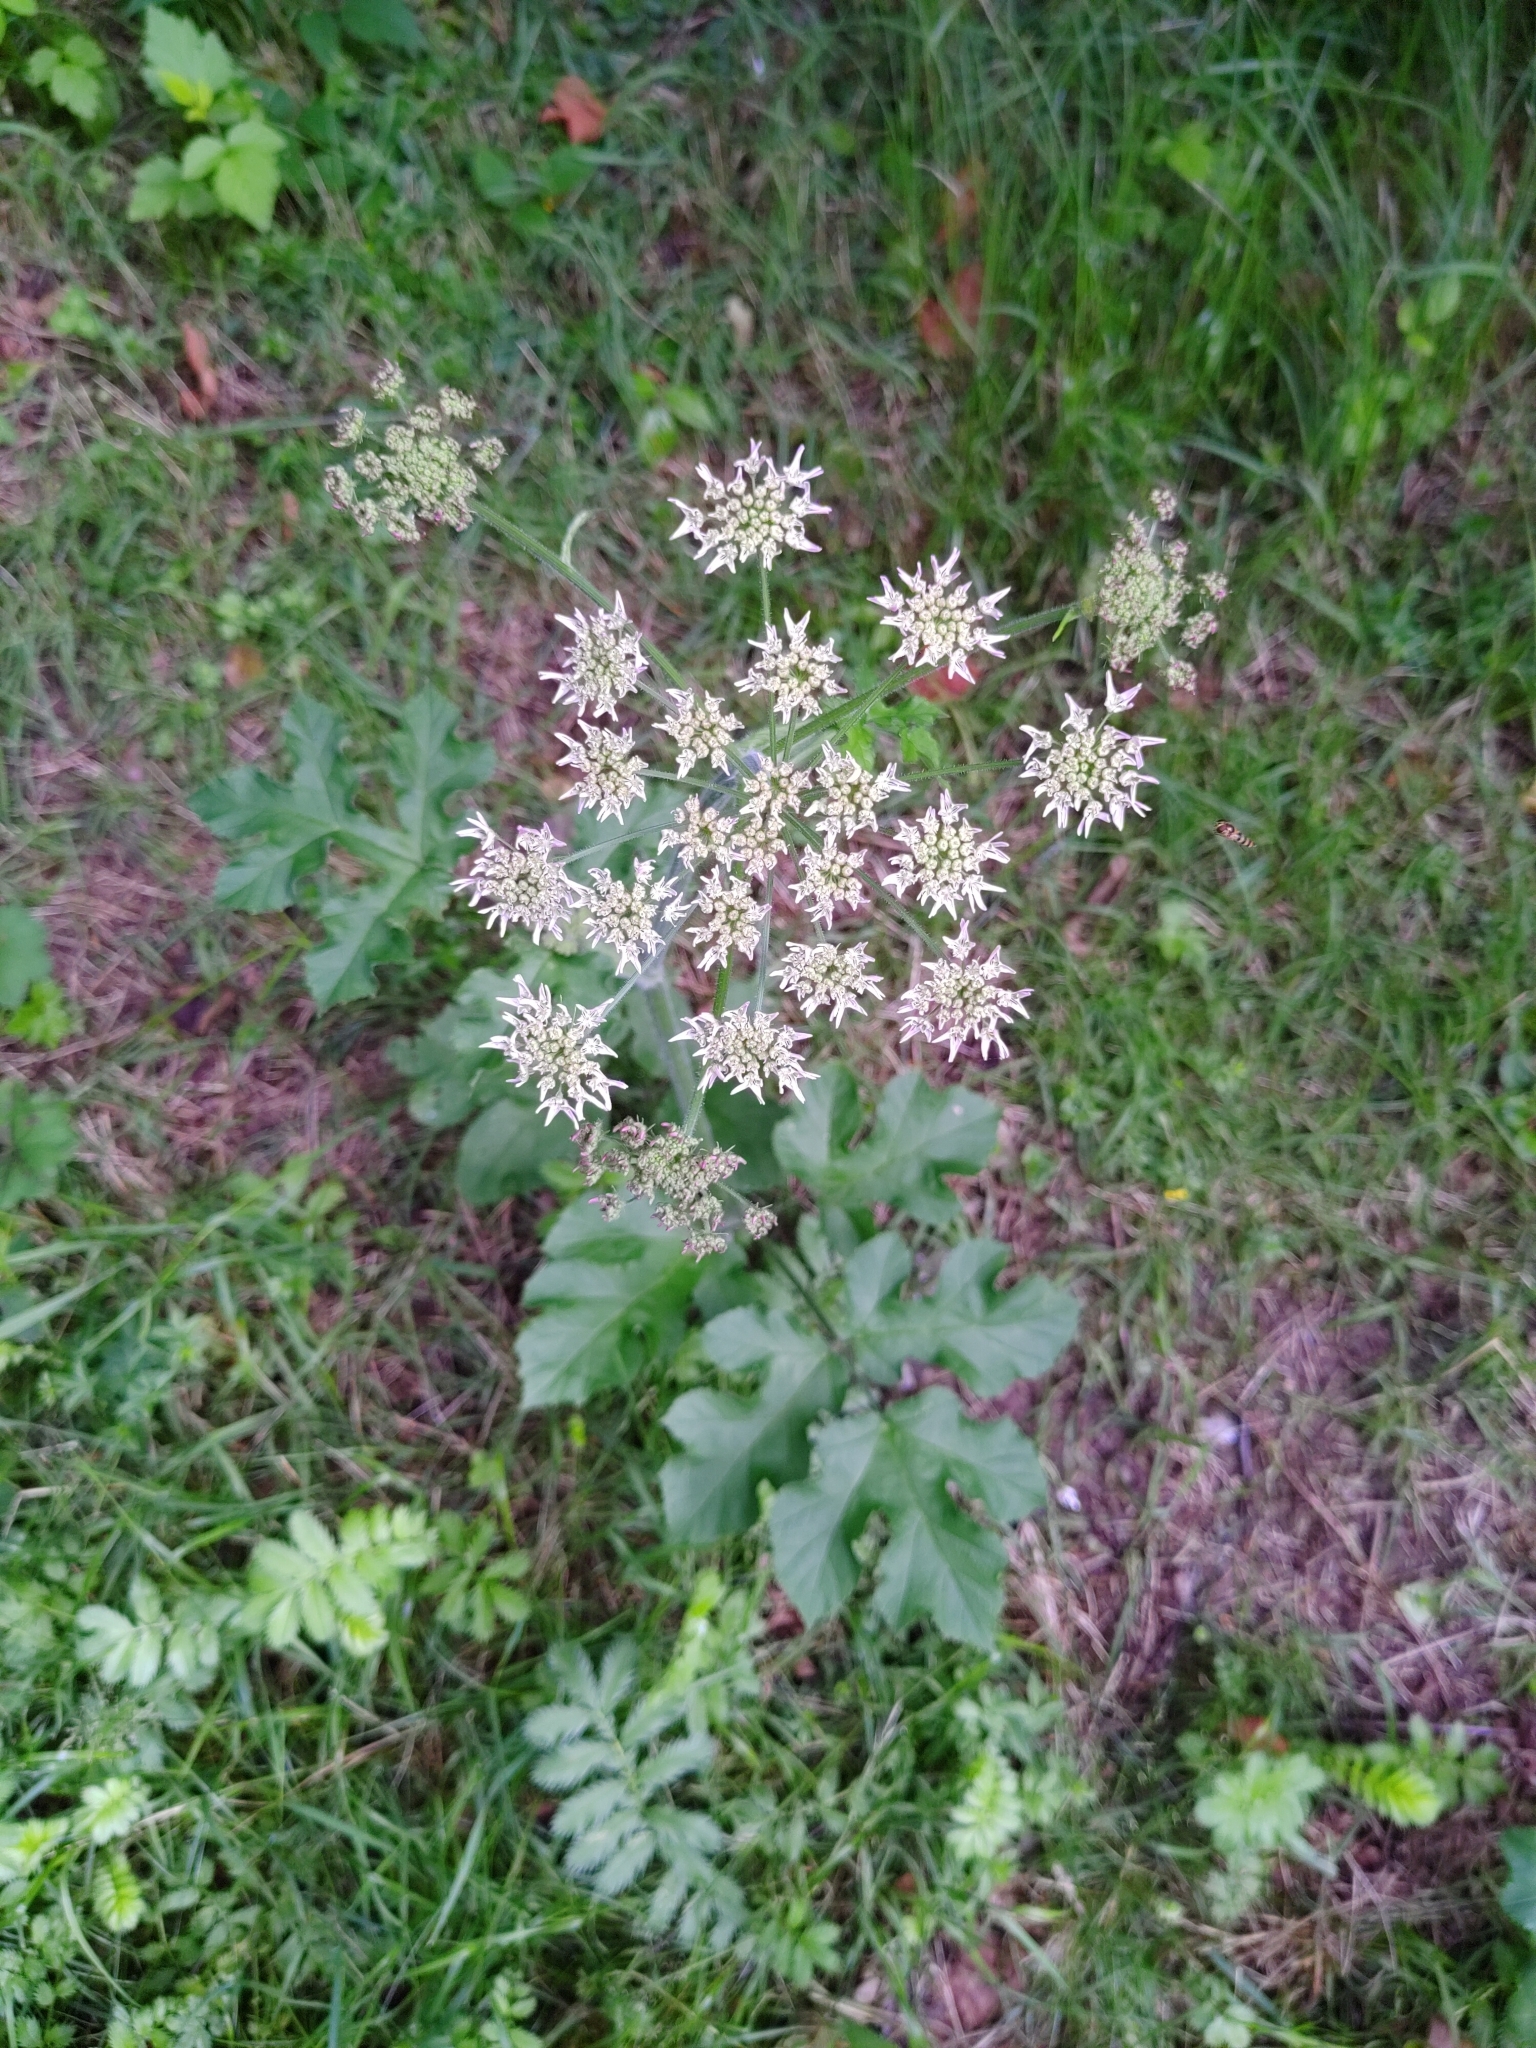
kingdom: Plantae
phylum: Tracheophyta
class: Magnoliopsida
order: Apiales
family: Apiaceae
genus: Heracleum
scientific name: Heracleum sphondylium
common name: Hogweed
